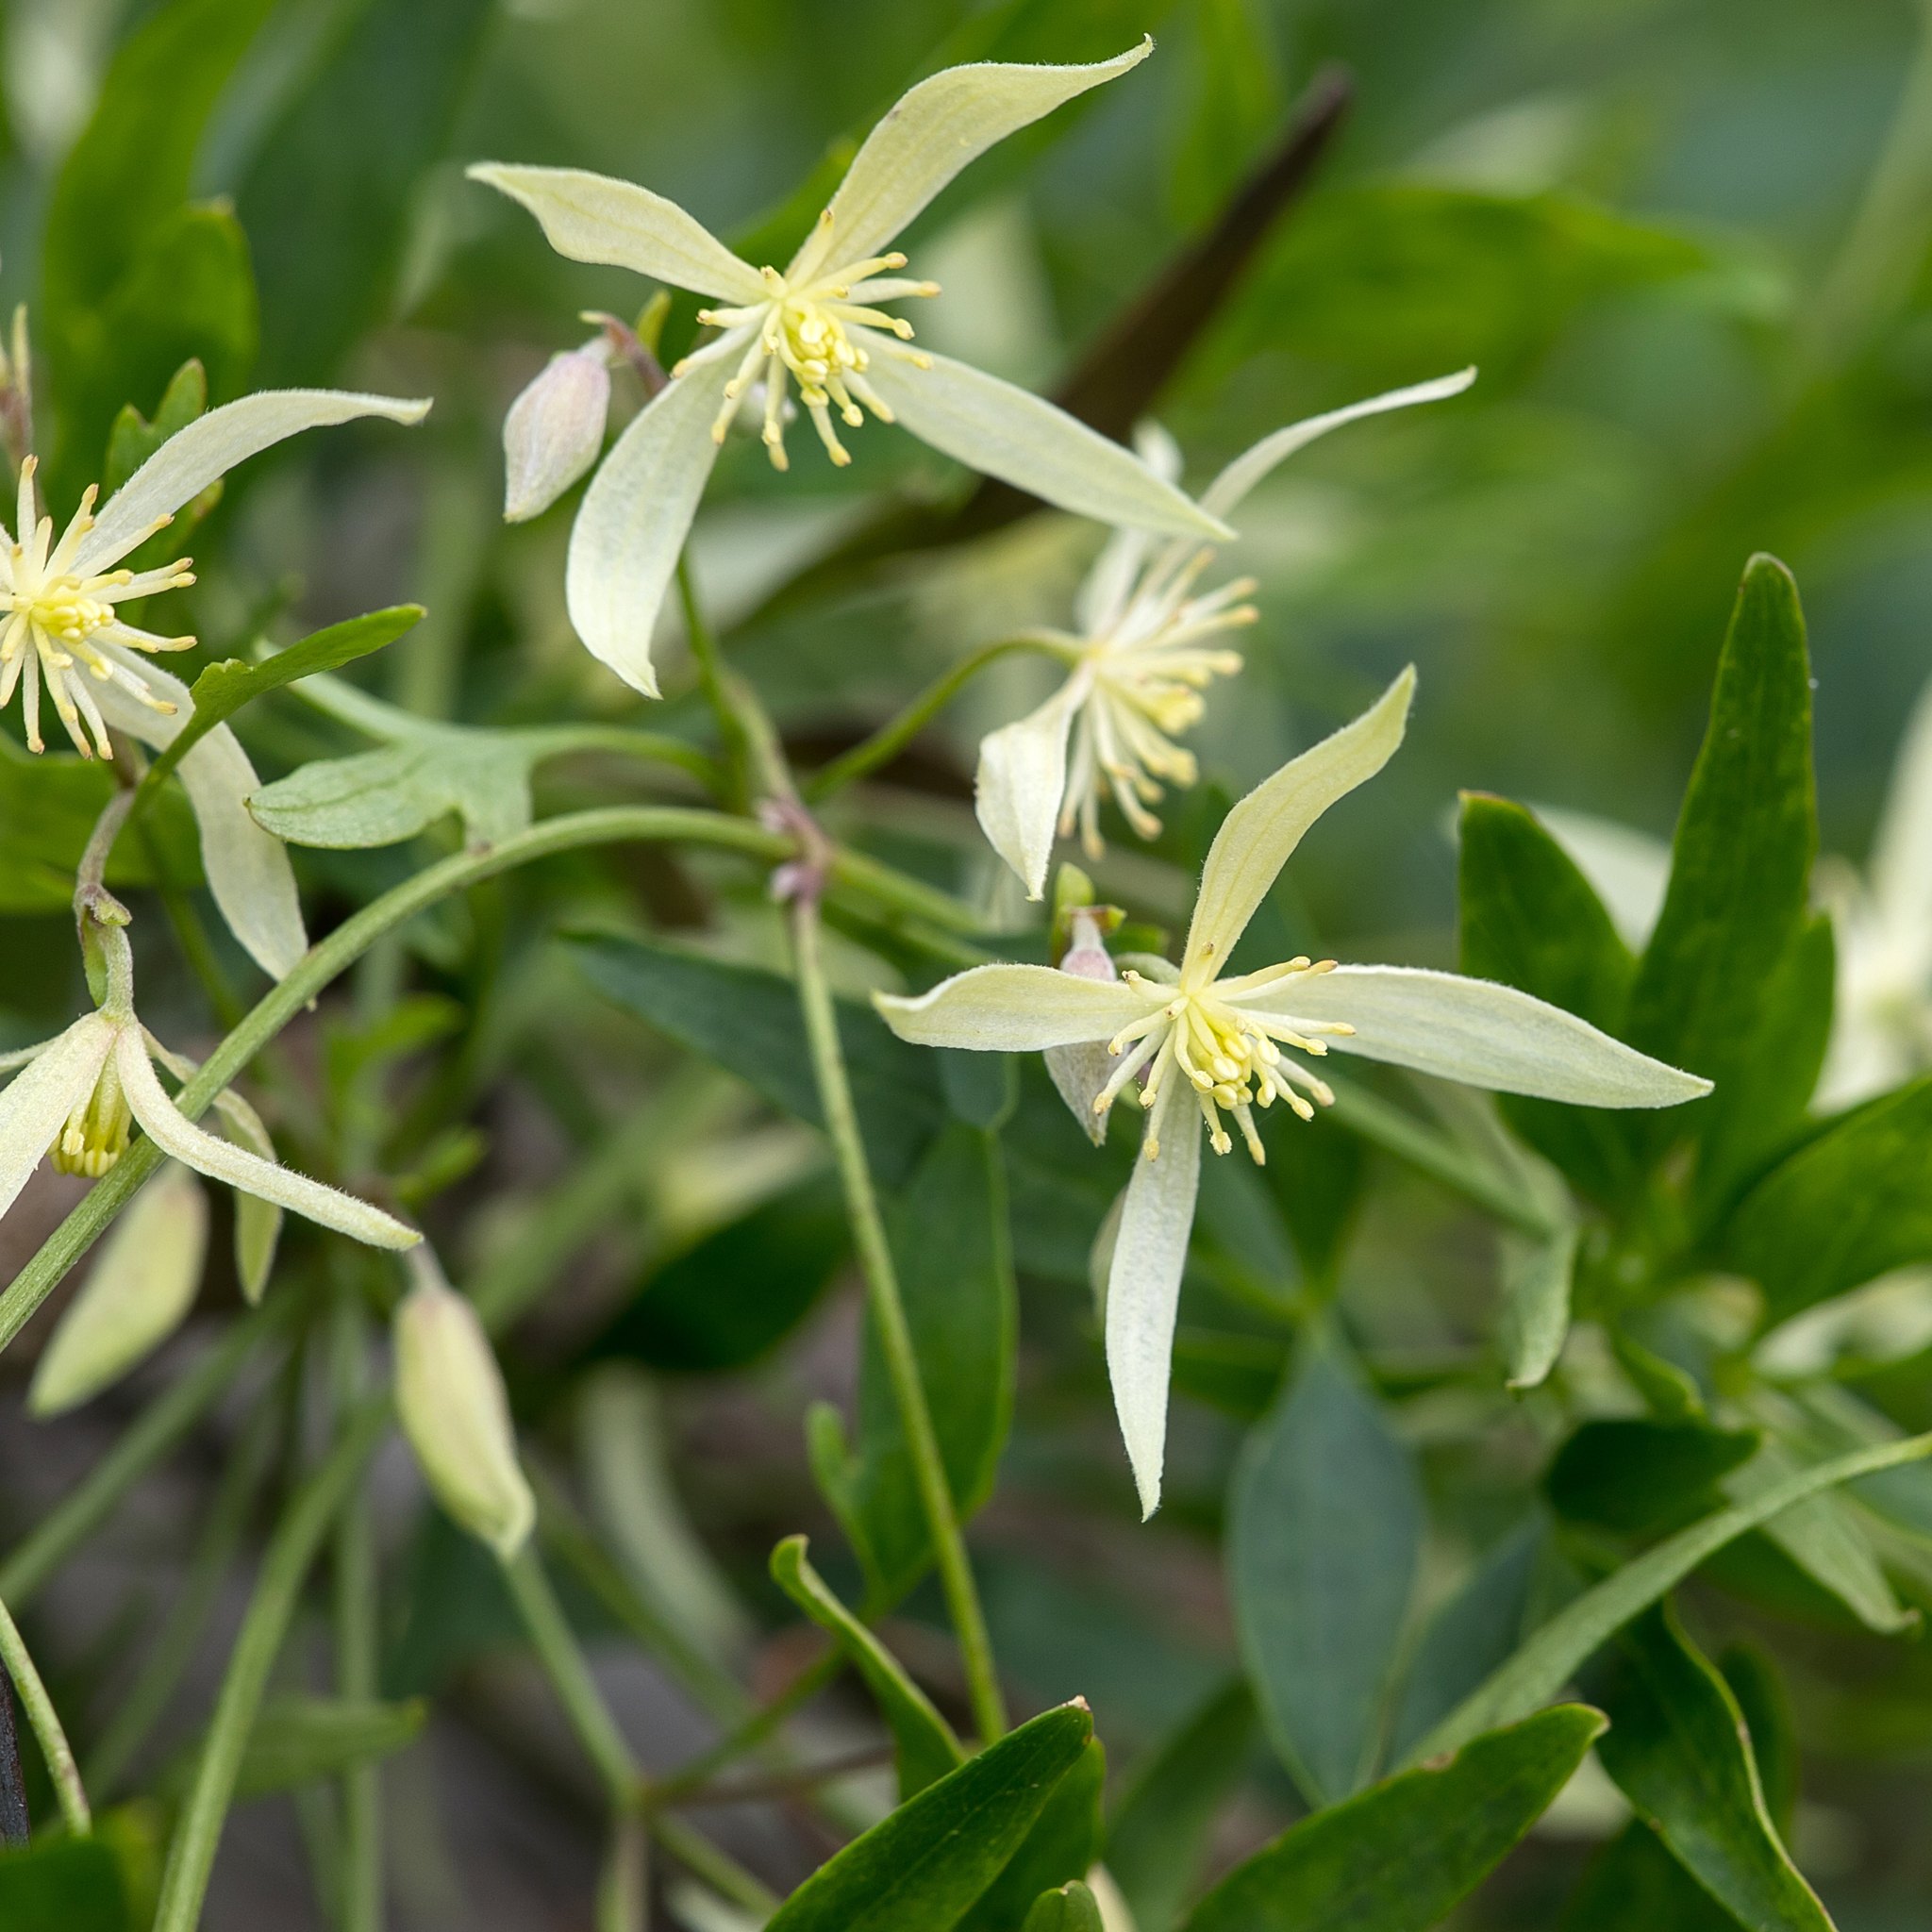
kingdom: Plantae
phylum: Tracheophyta
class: Magnoliopsida
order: Ranunculales
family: Ranunculaceae
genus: Clematis
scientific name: Clematis microphylla
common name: Headachevine
